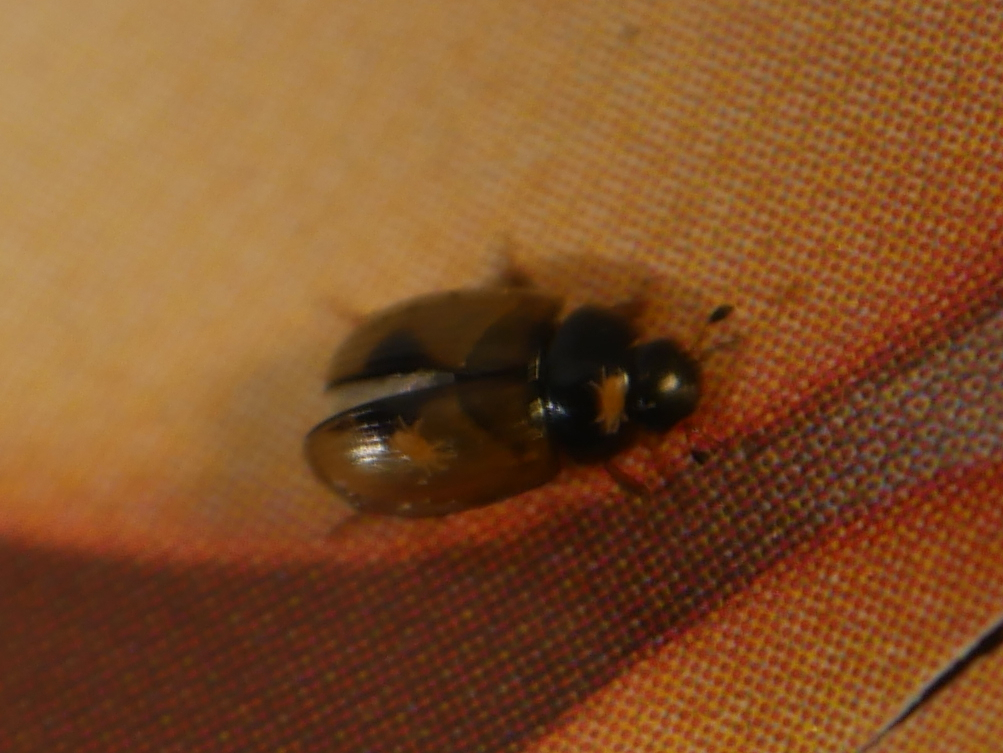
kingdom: Animalia
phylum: Arthropoda
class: Insecta
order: Coleoptera
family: Hydrophilidae
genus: Cercyon
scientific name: Cercyon unipunctatus
